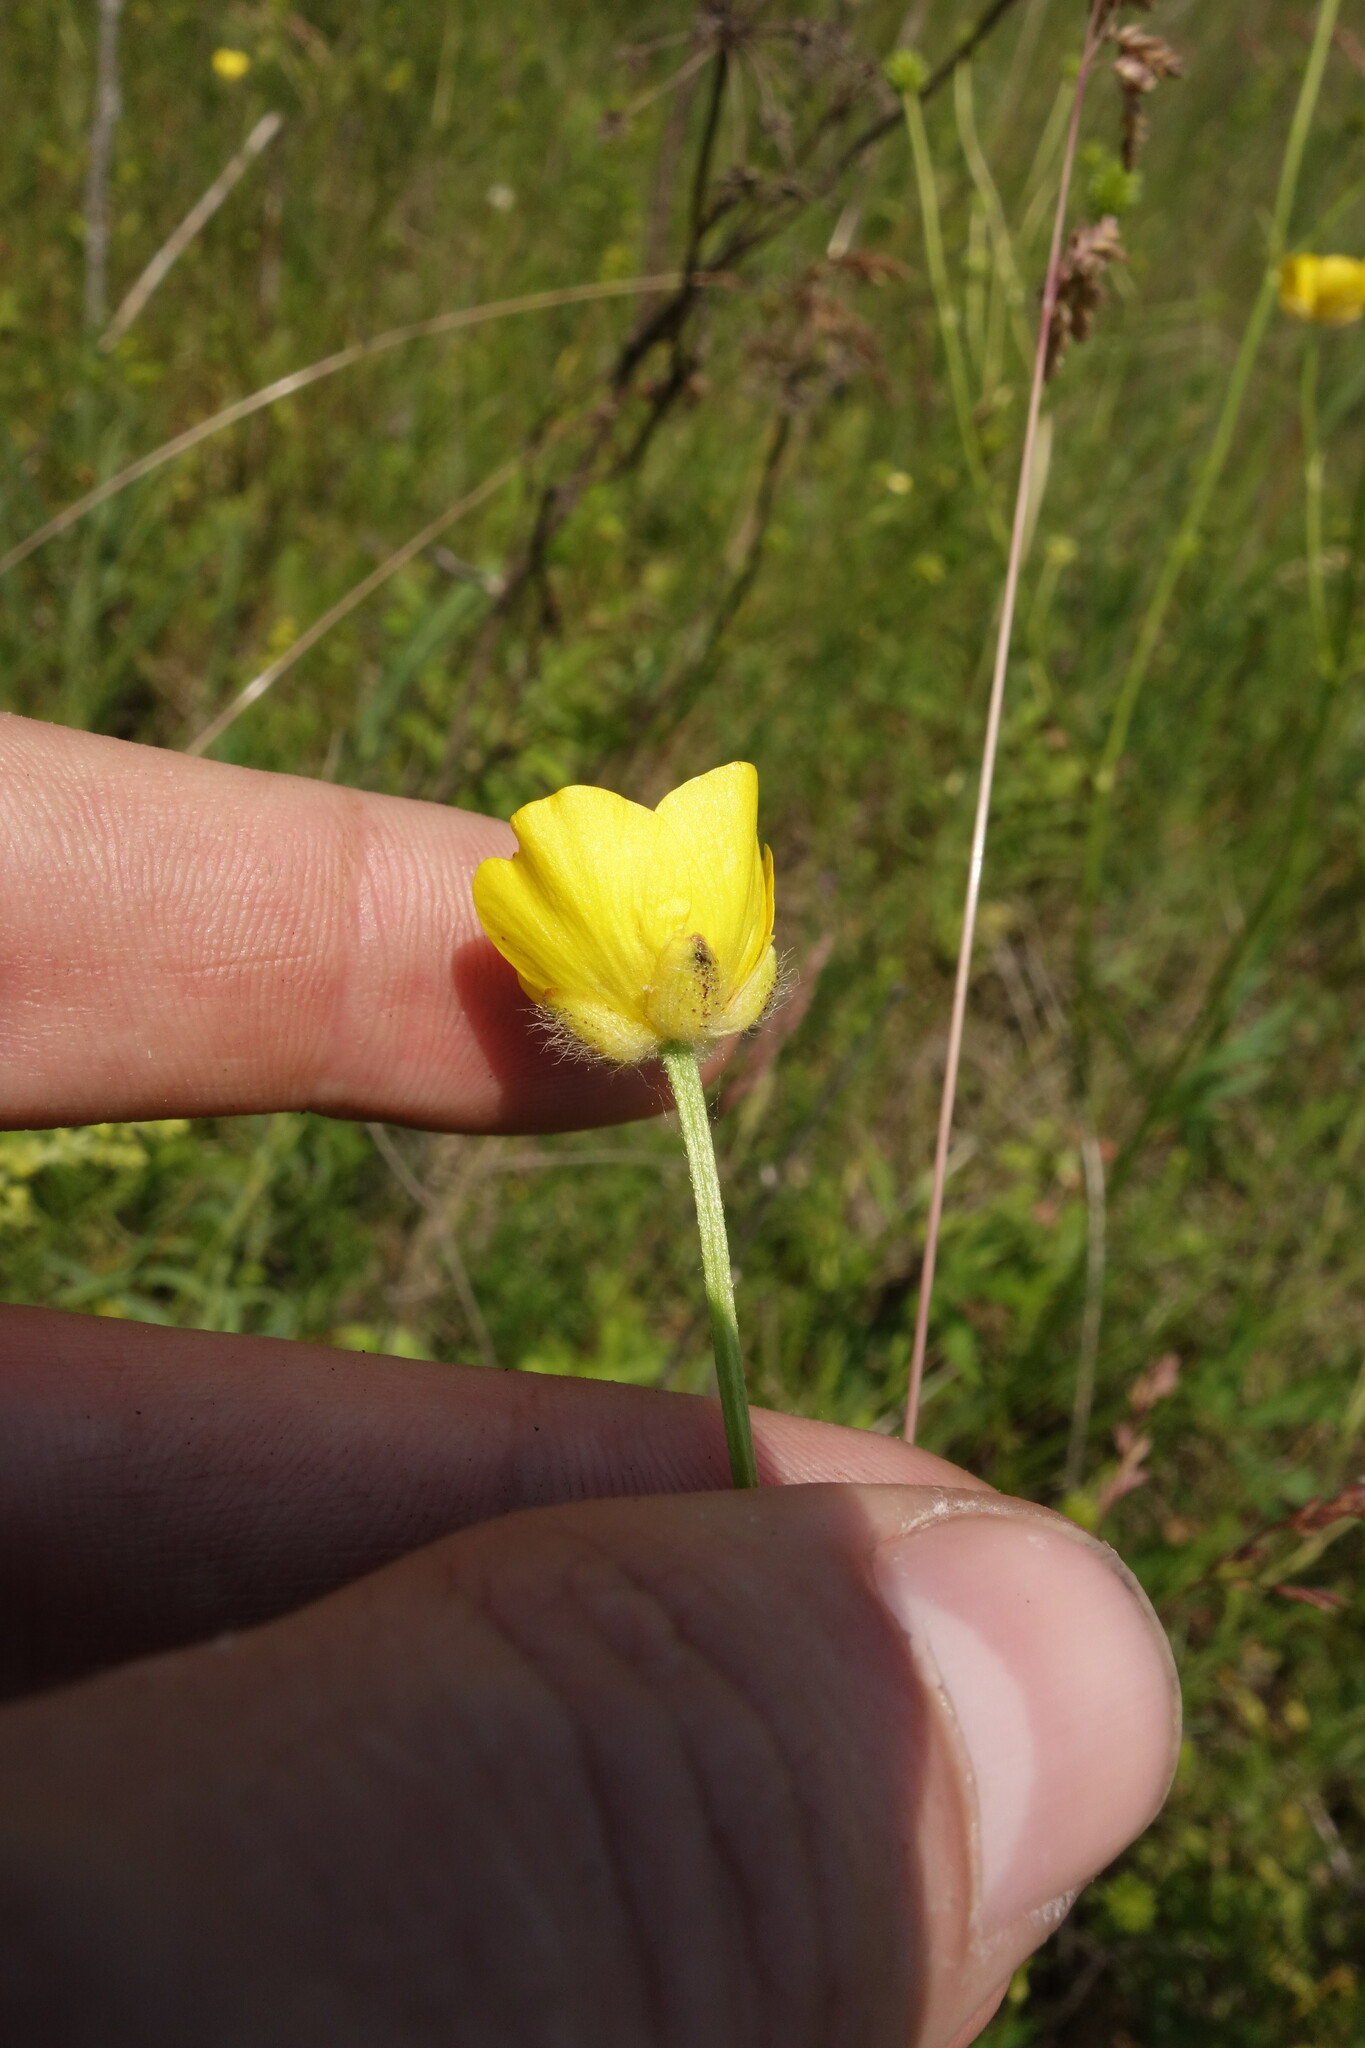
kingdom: Plantae
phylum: Tracheophyta
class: Magnoliopsida
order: Ranunculales
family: Ranunculaceae
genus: Ranunculus
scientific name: Ranunculus polyanthemos
